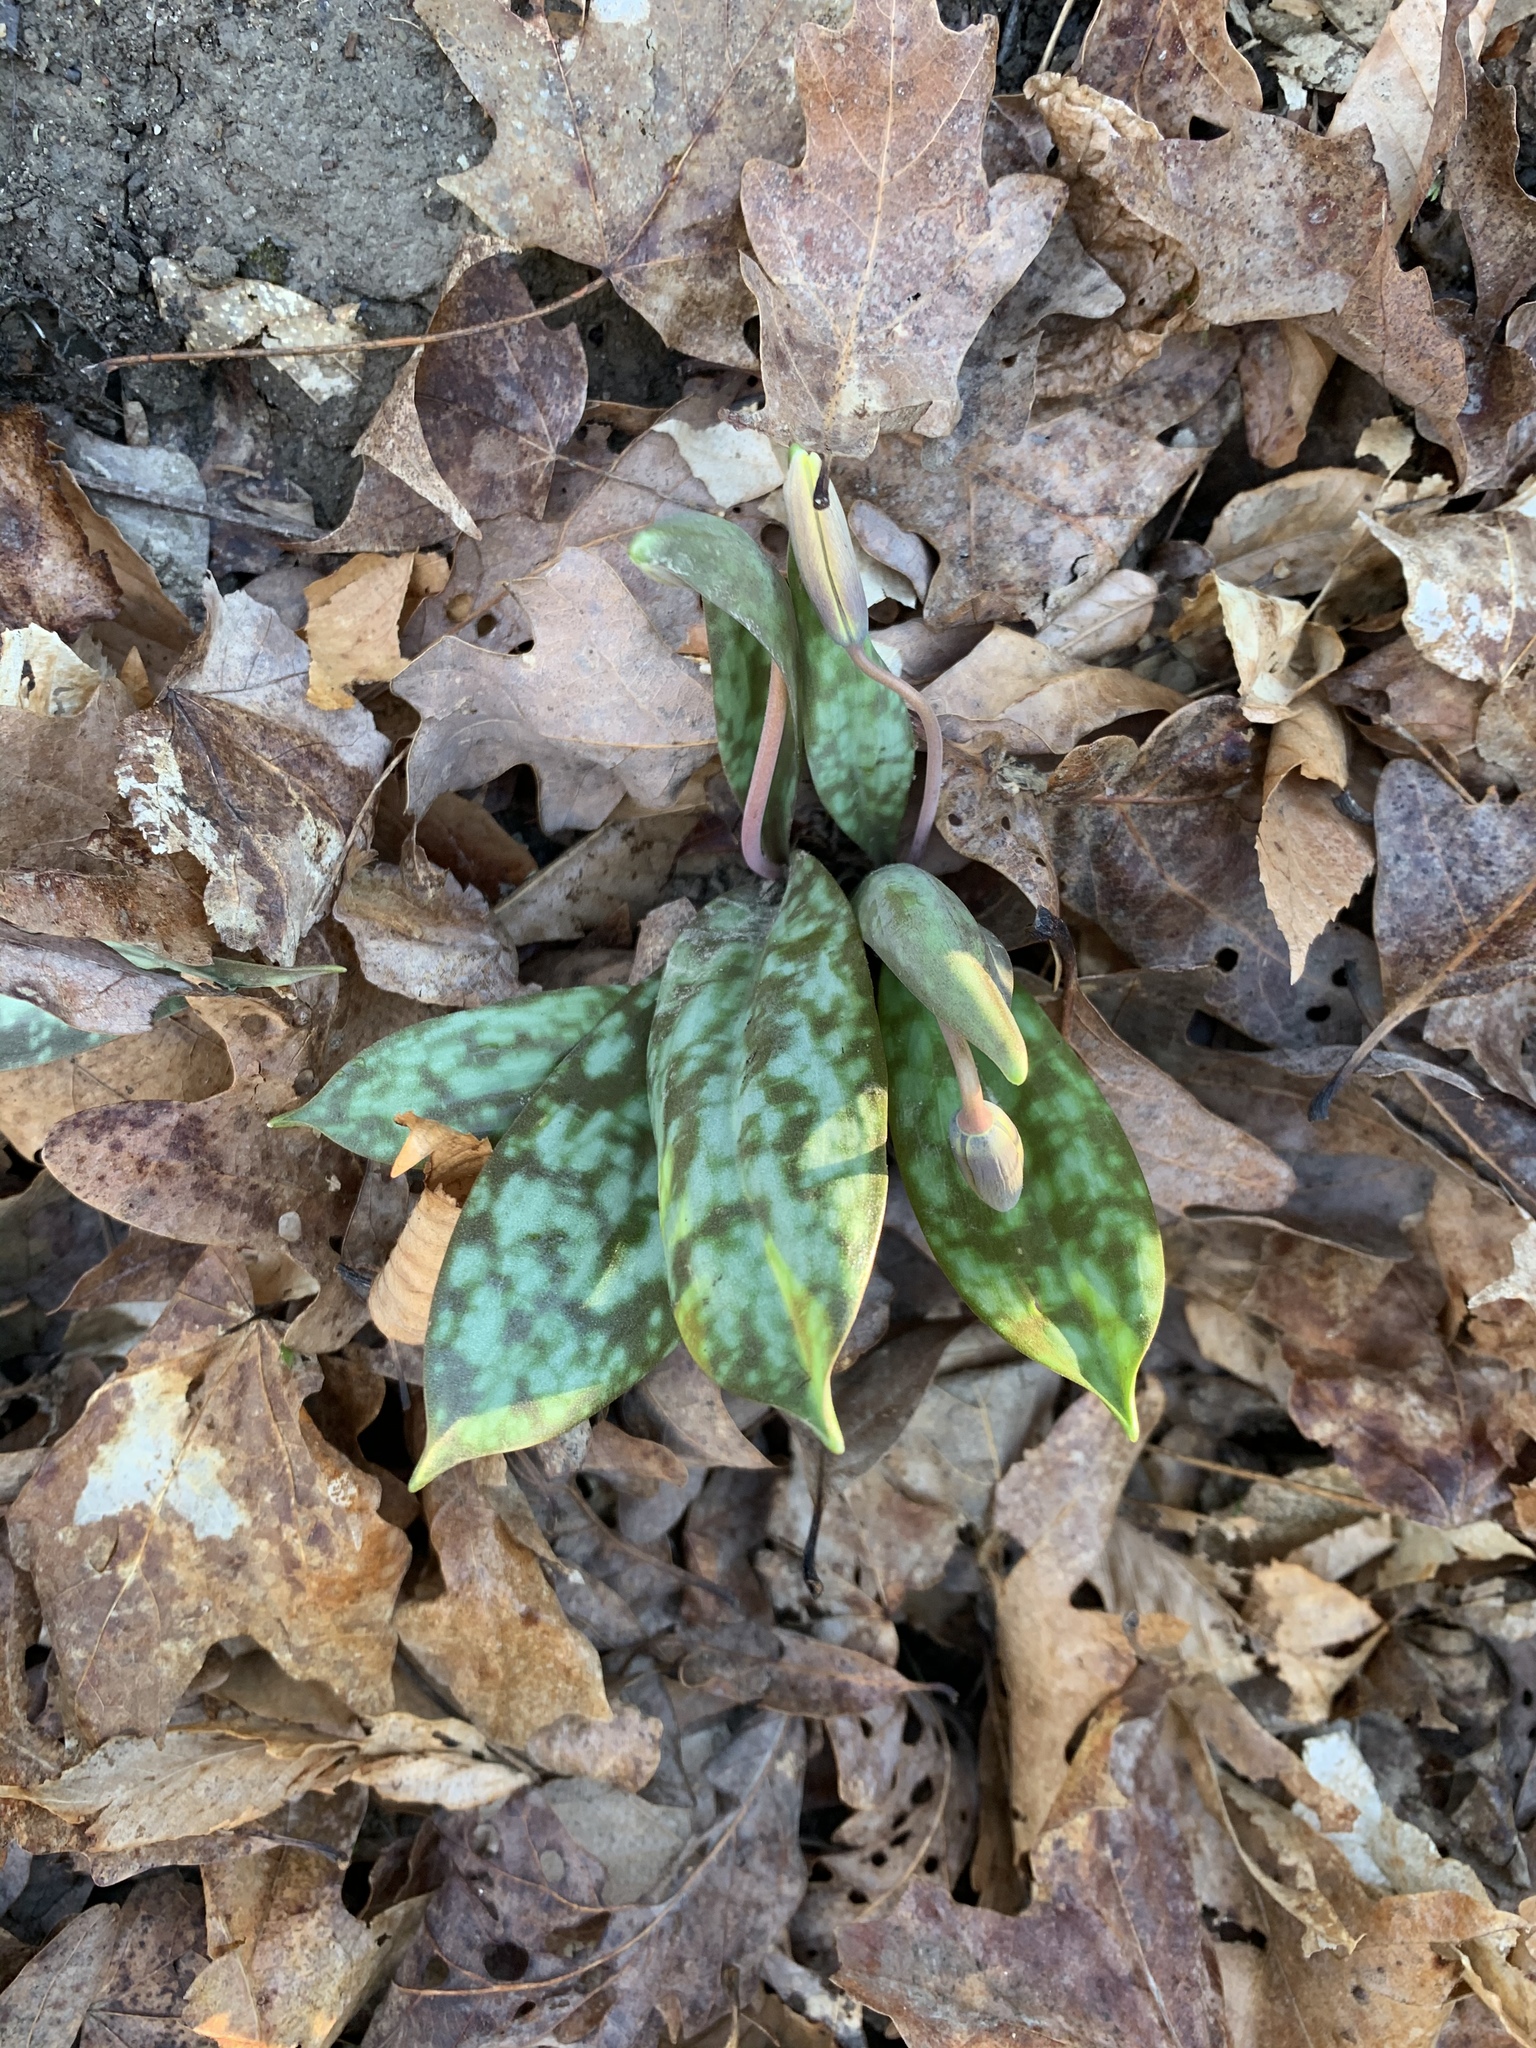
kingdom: Plantae
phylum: Tracheophyta
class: Liliopsida
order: Liliales
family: Liliaceae
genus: Erythronium
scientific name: Erythronium americanum
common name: Yellow adder's-tongue
